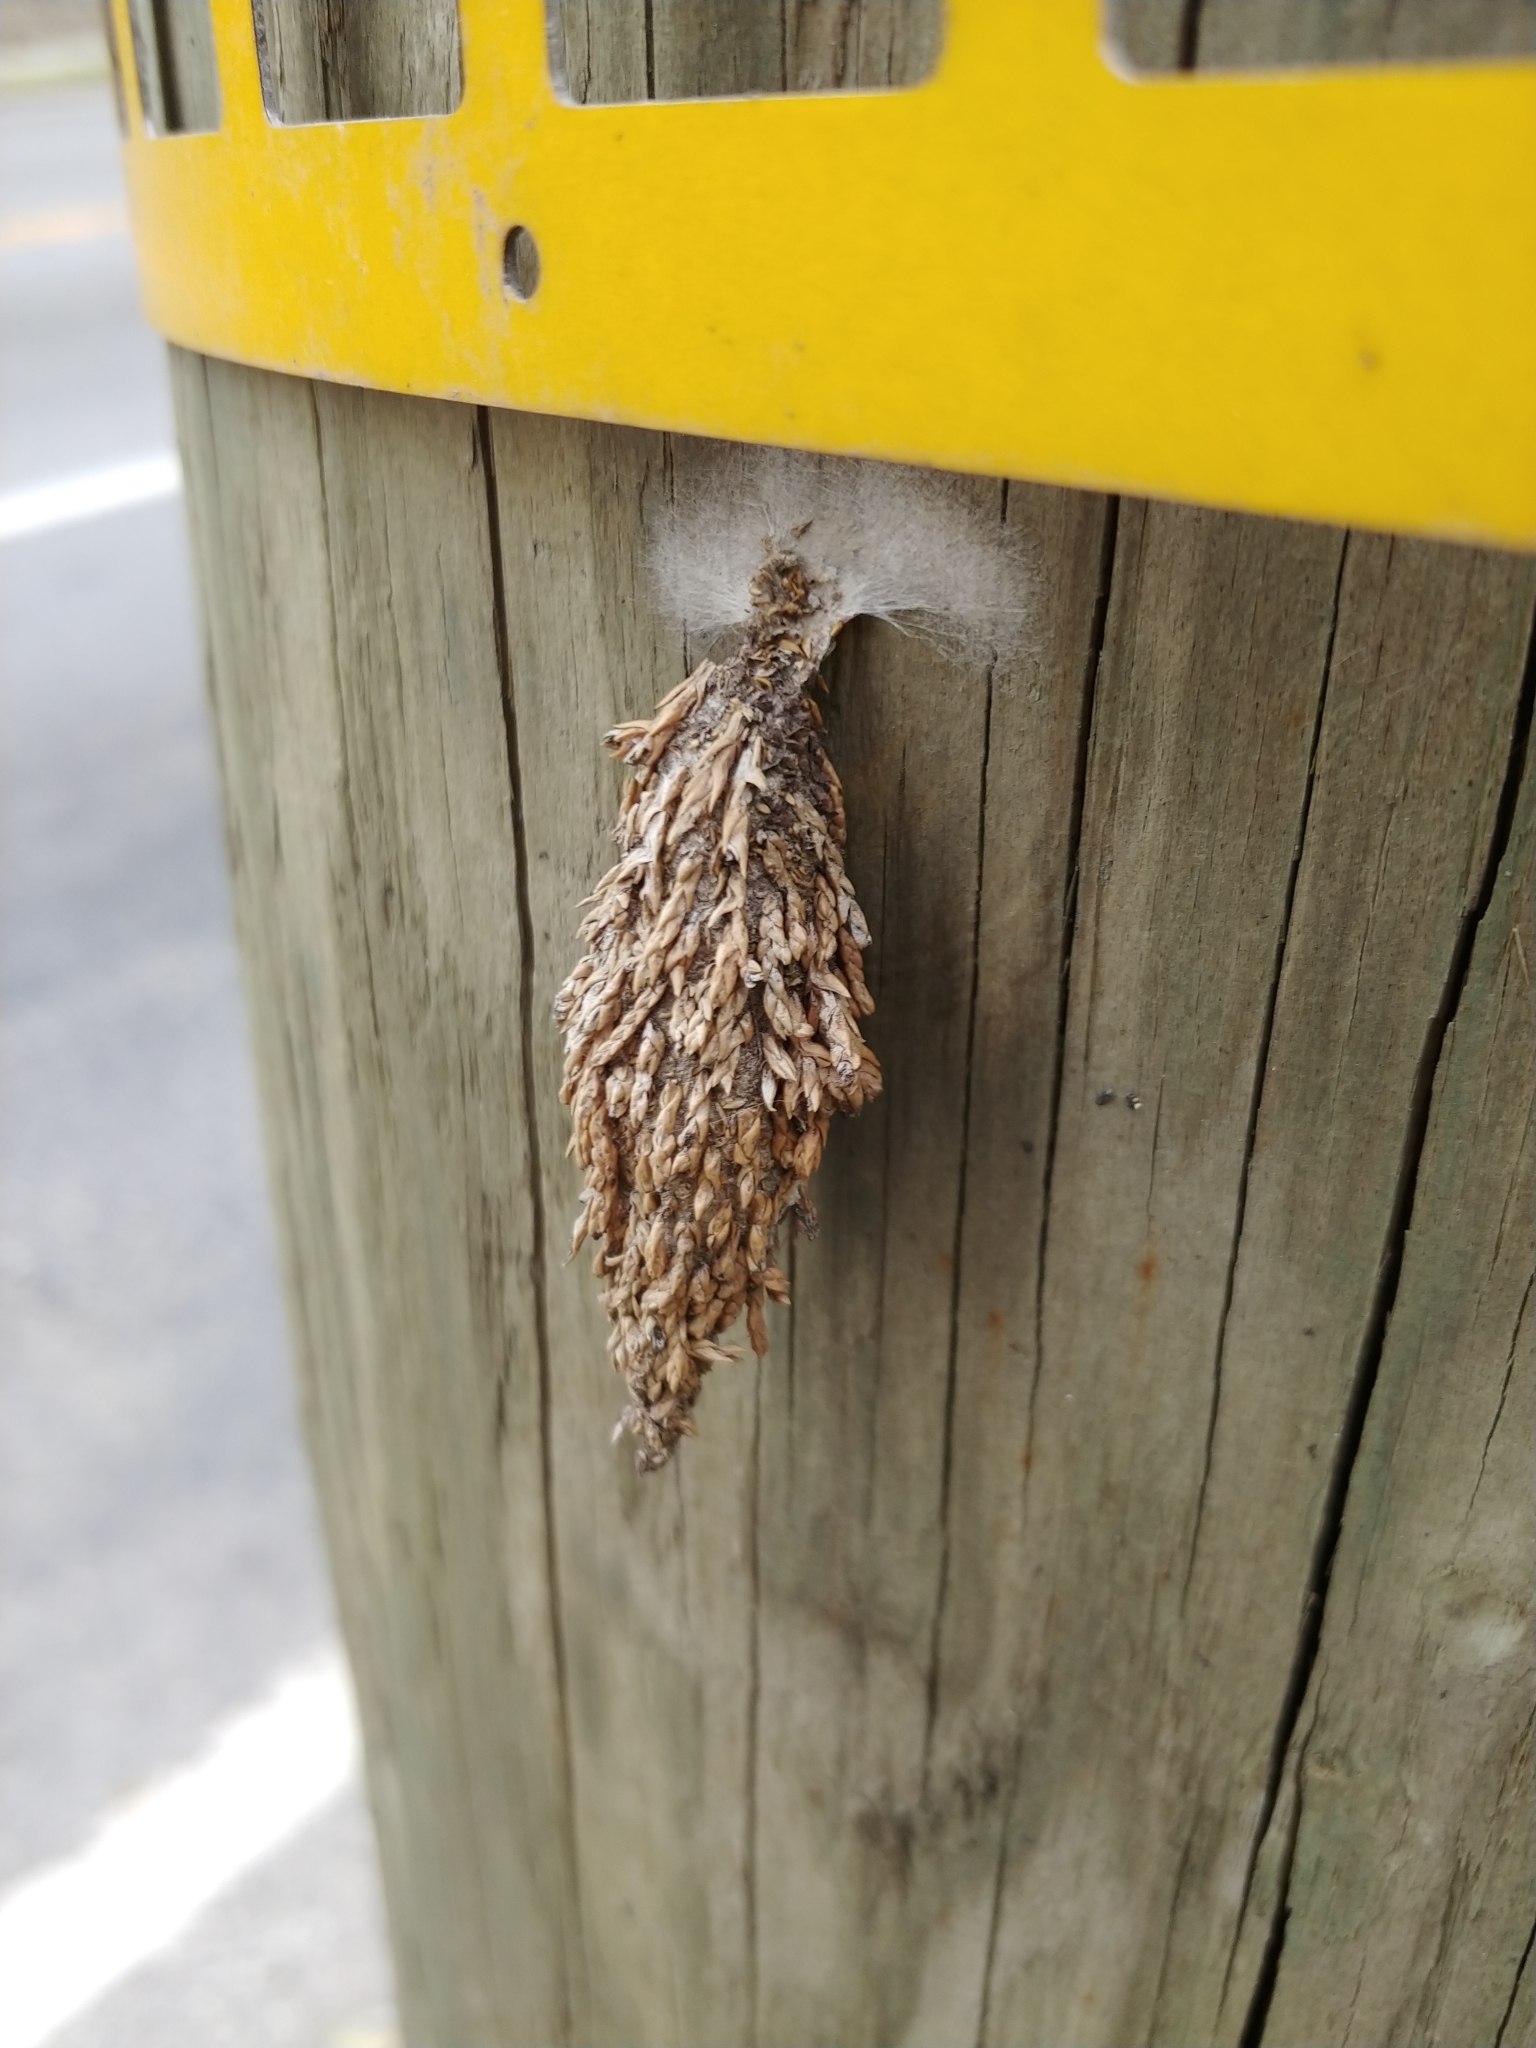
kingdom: Animalia
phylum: Arthropoda
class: Insecta
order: Lepidoptera
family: Psychidae
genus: Thyridopteryx
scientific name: Thyridopteryx ephemeraeformis
